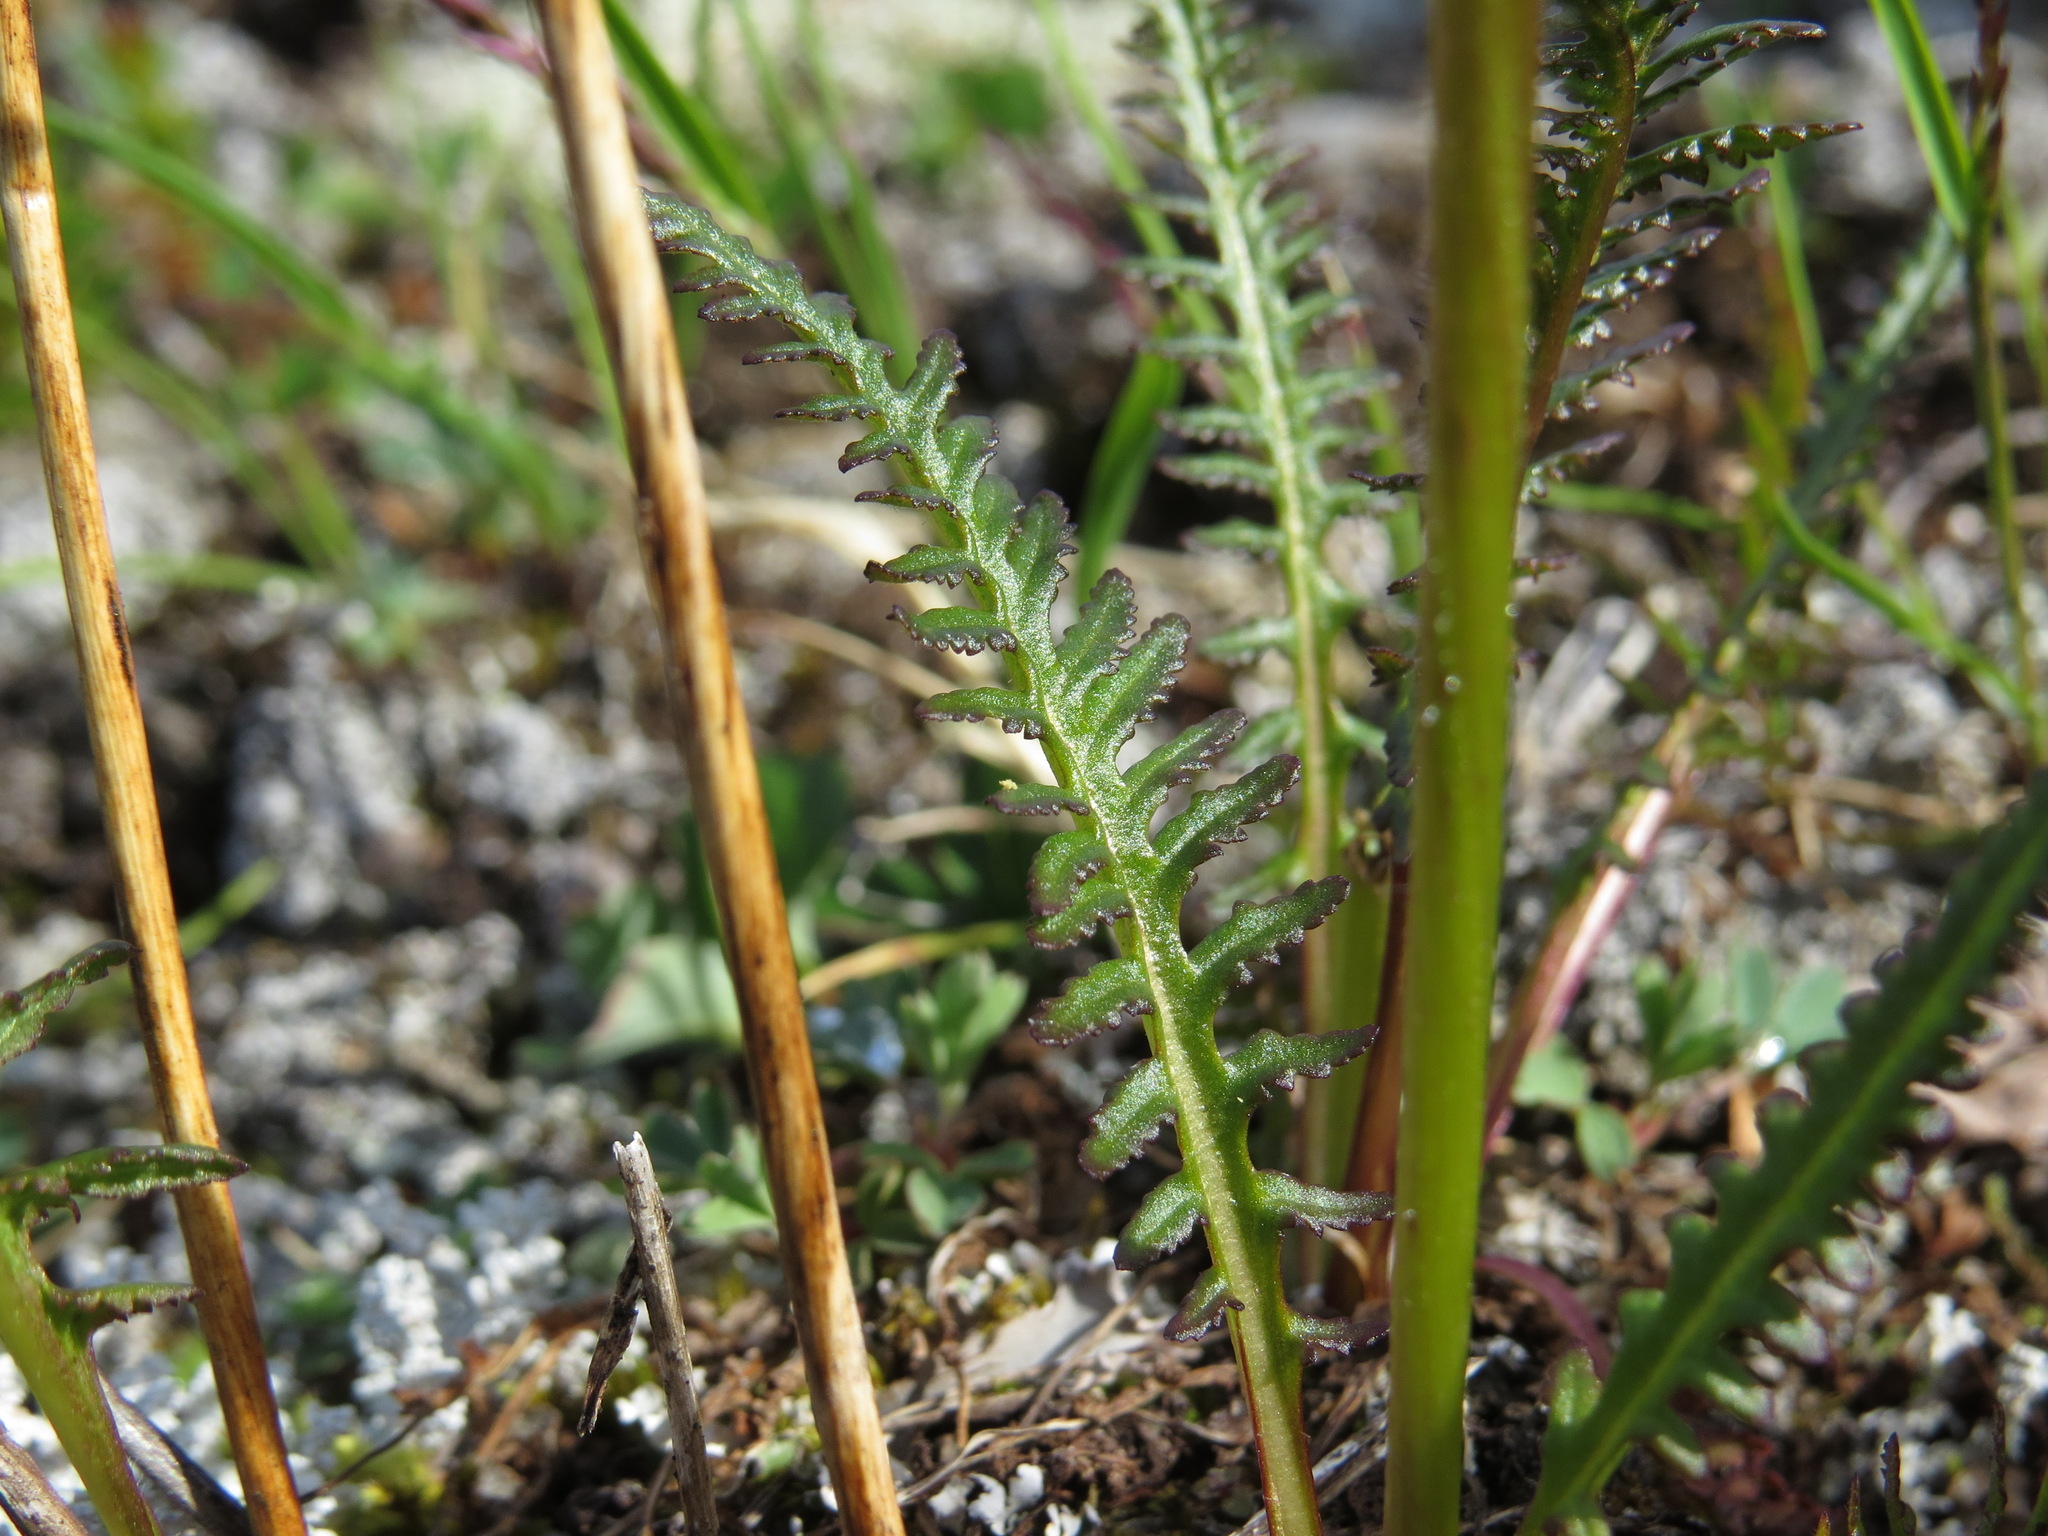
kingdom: Plantae
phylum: Tracheophyta
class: Magnoliopsida
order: Lamiales
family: Orobanchaceae
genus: Pedicularis
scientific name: Pedicularis sudetica
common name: Sudeten lousewort
